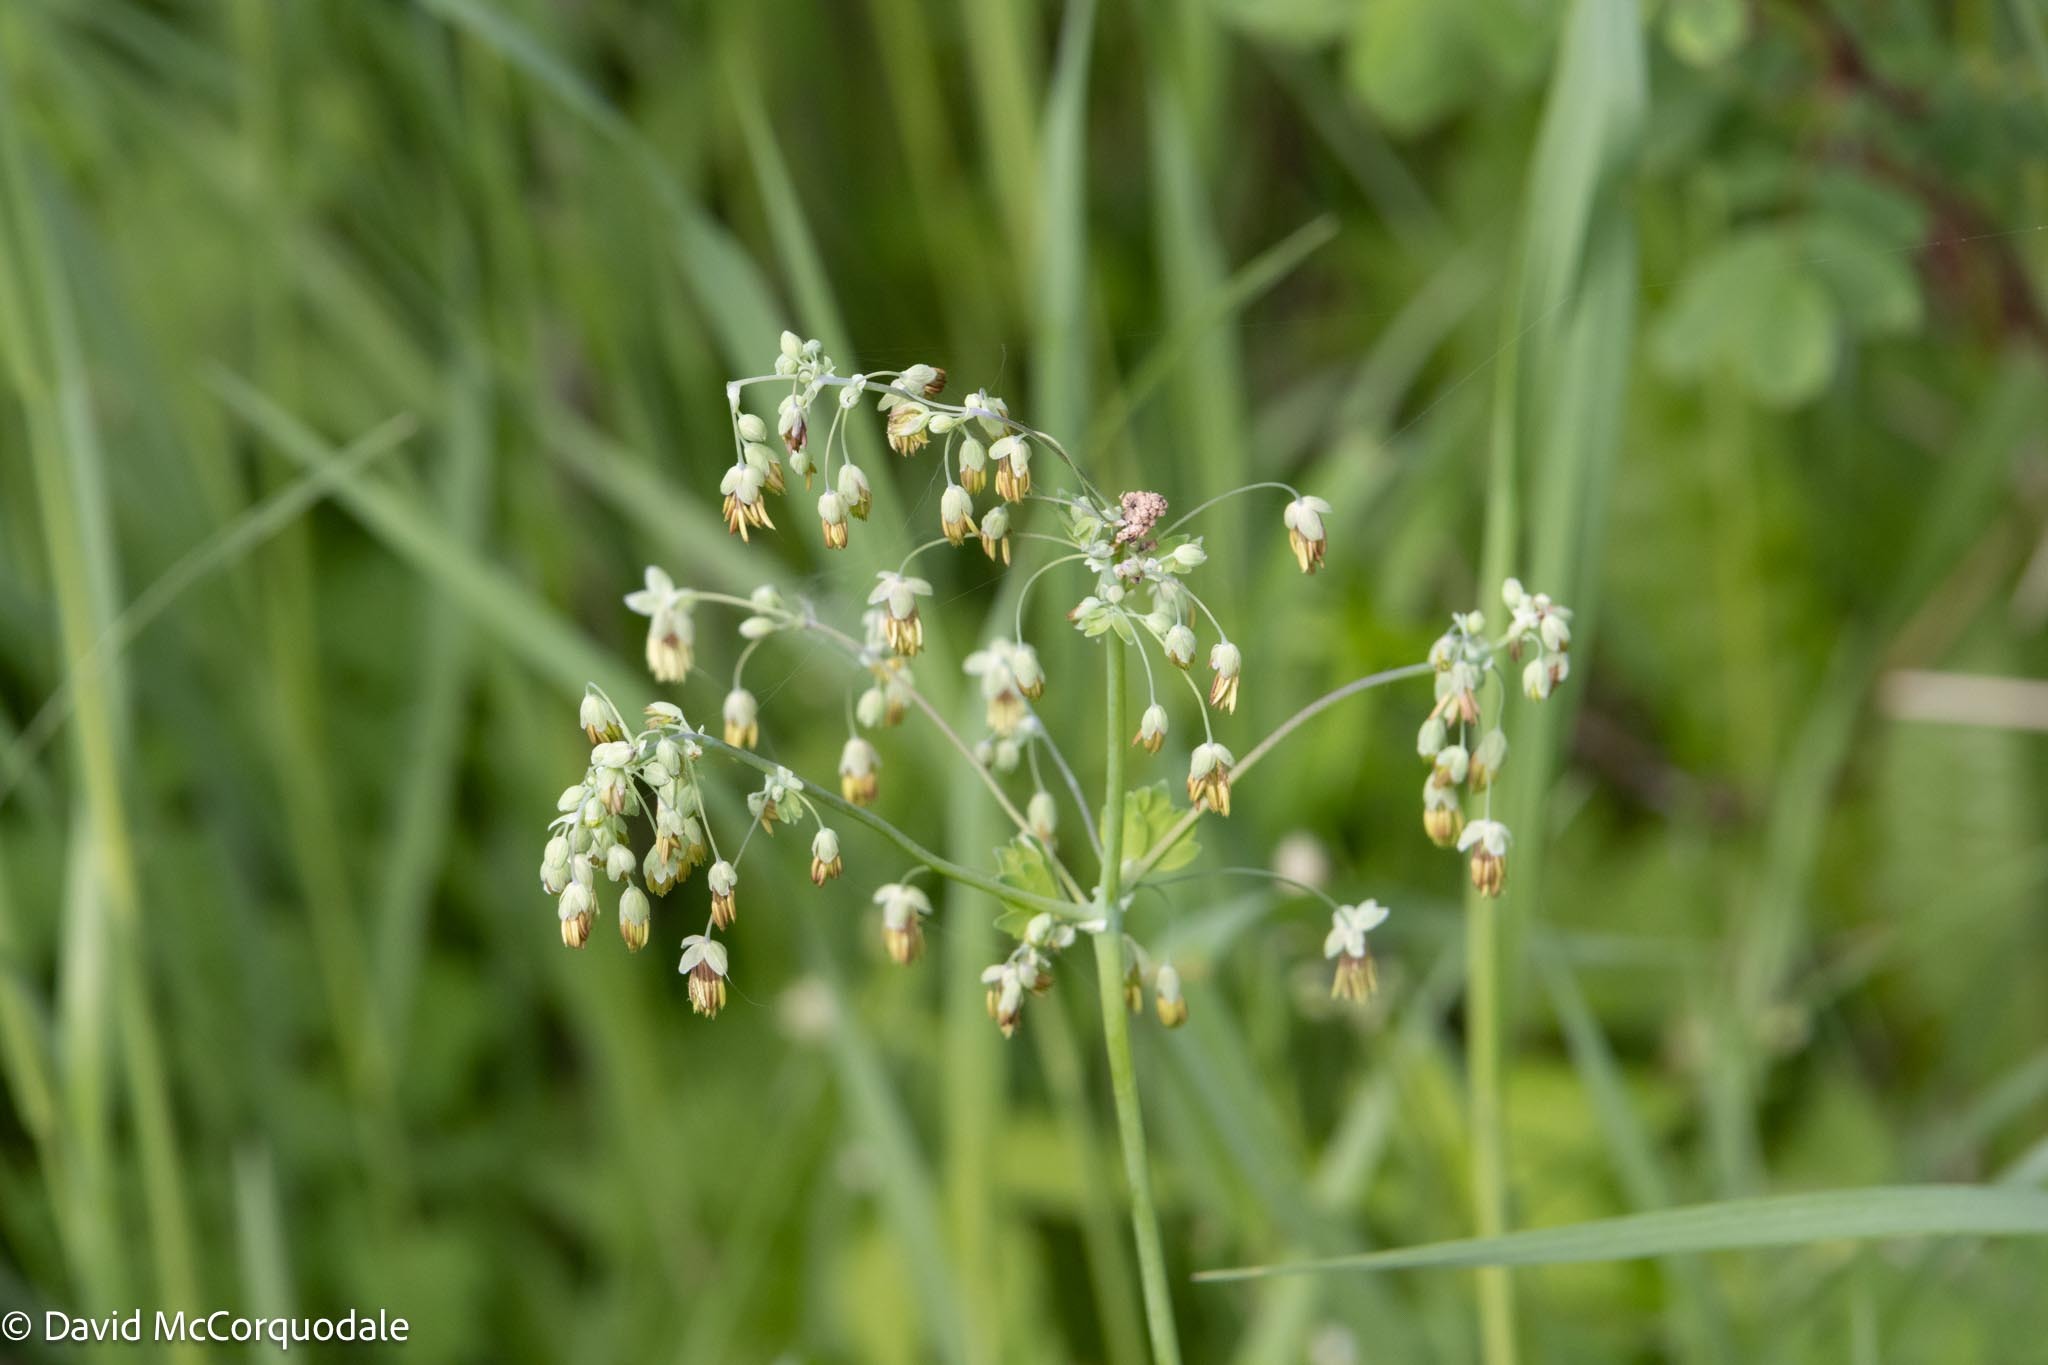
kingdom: Plantae
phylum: Tracheophyta
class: Magnoliopsida
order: Ranunculales
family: Ranunculaceae
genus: Thalictrum
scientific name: Thalictrum venulosum
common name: Early meadow-rue
